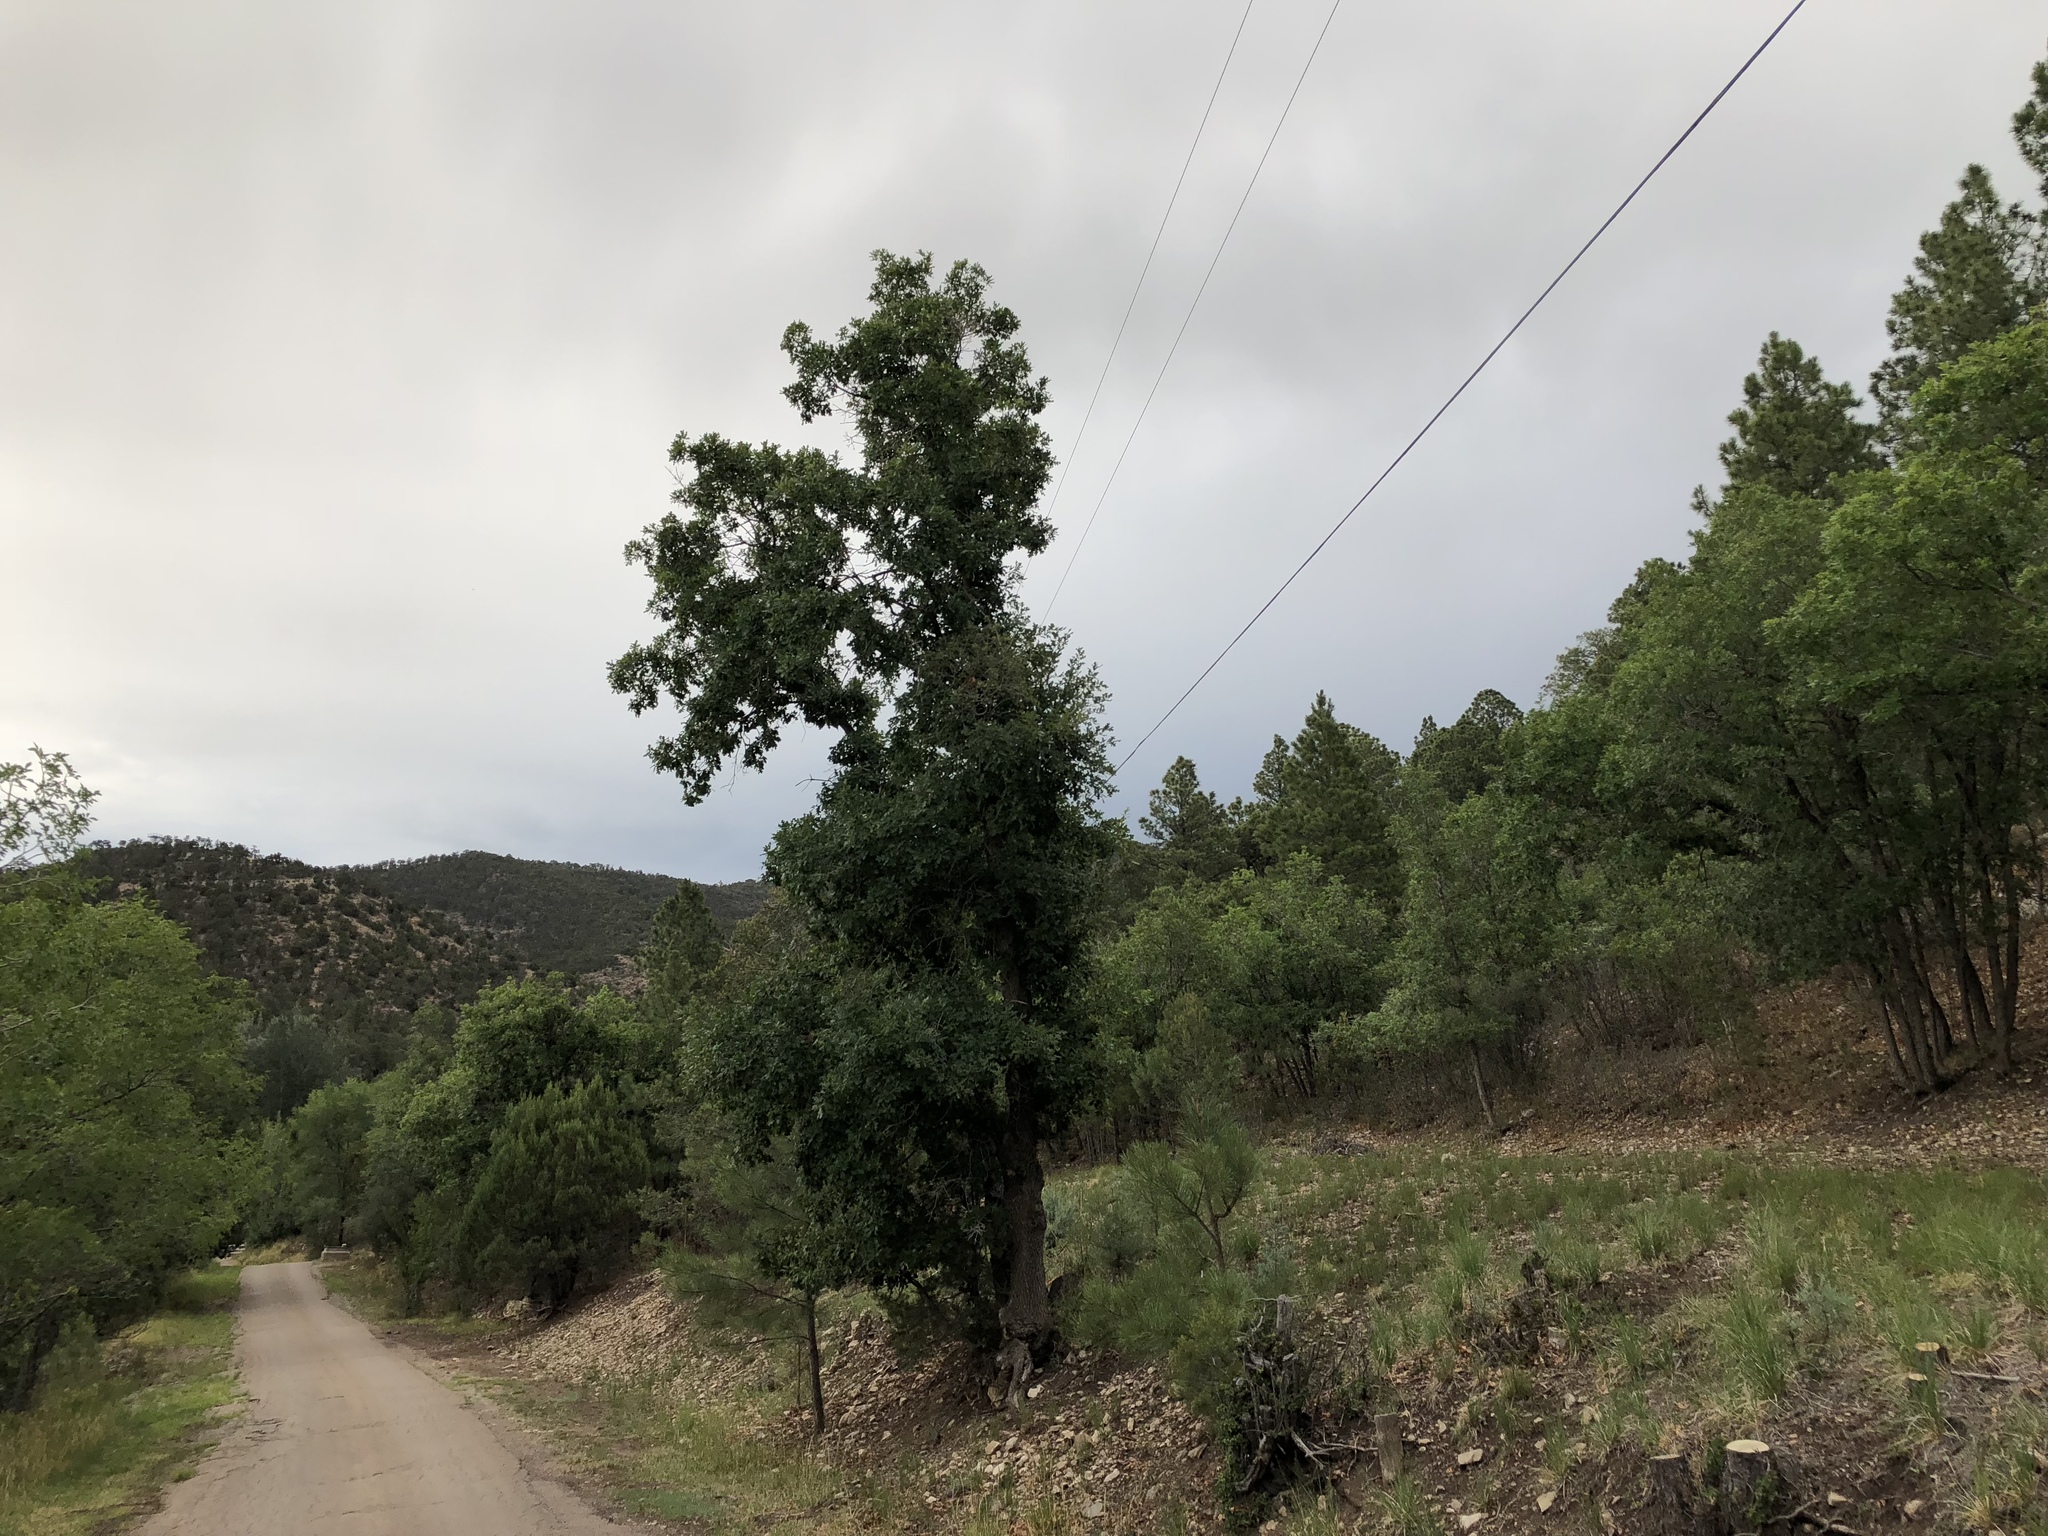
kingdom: Plantae
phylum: Tracheophyta
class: Magnoliopsida
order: Fagales
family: Fagaceae
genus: Quercus
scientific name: Quercus gambelii
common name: Gambel oak
